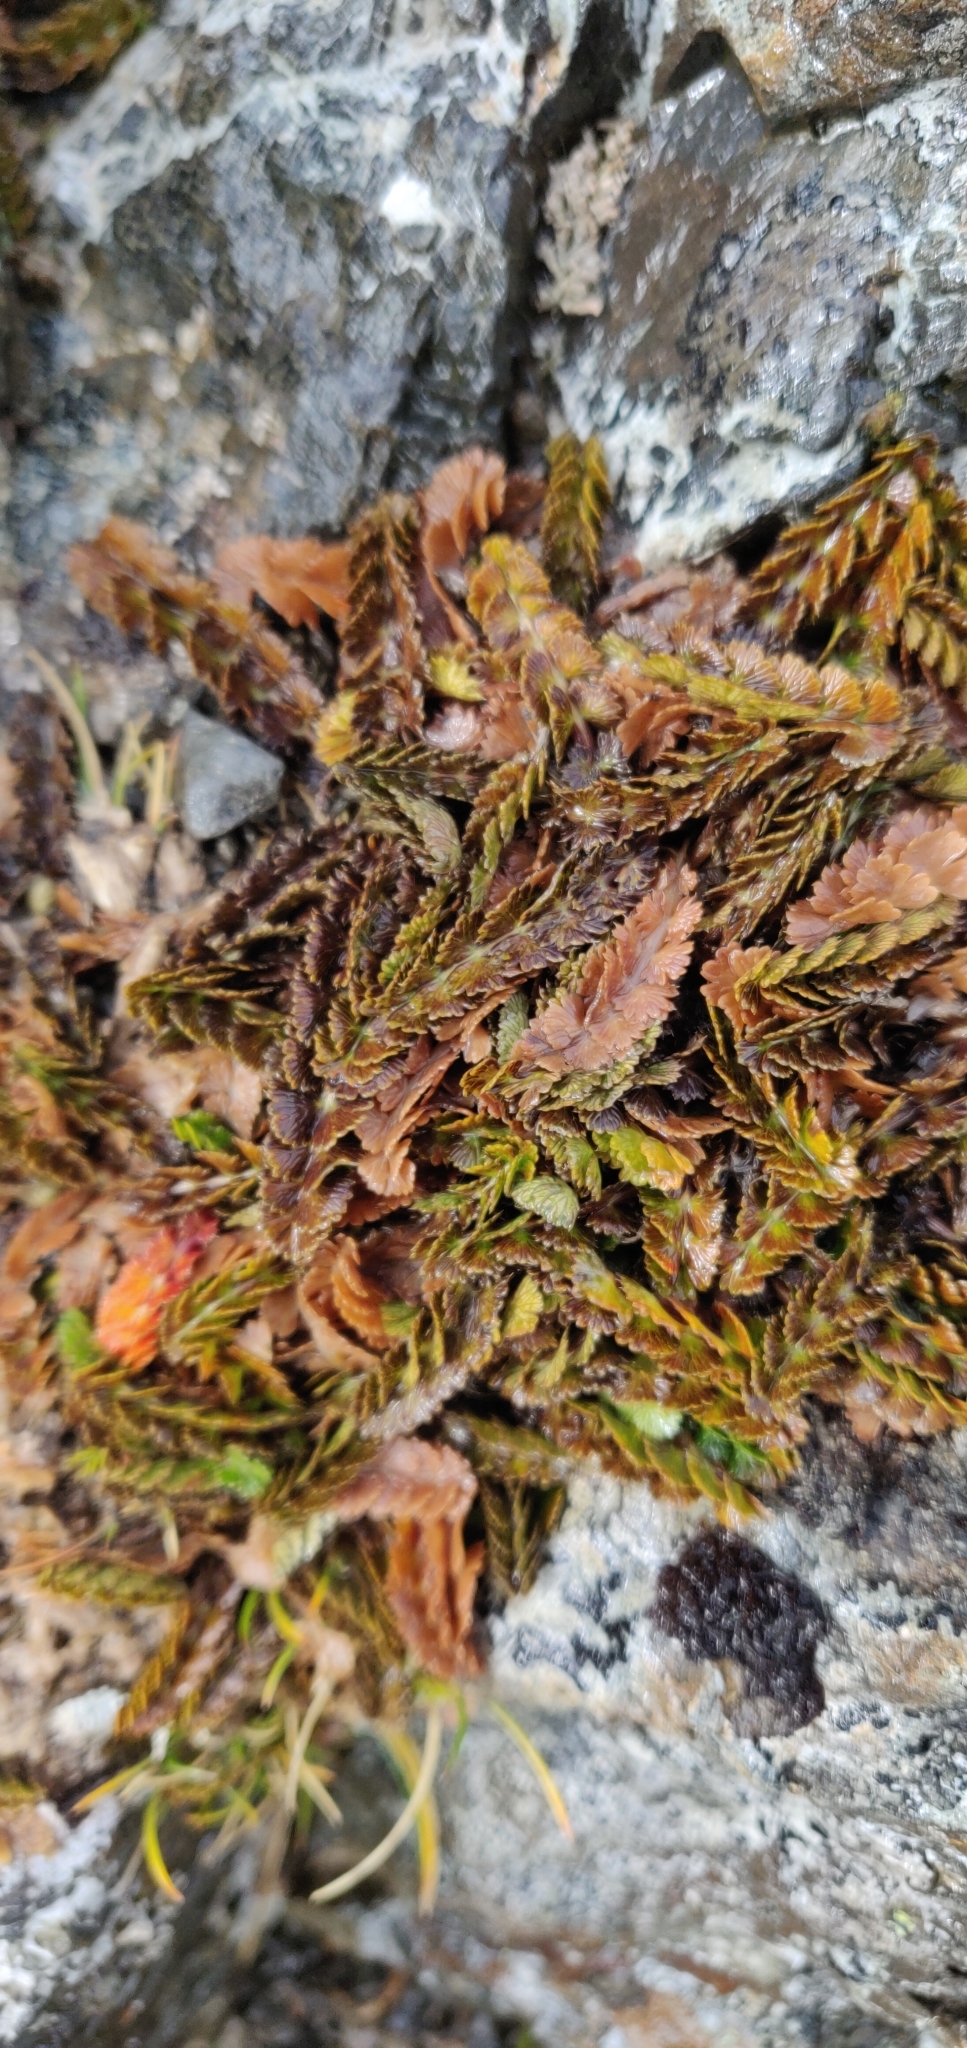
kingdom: Plantae
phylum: Tracheophyta
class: Magnoliopsida
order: Apiales
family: Apiaceae
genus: Anisotome
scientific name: Anisotome aromatica
